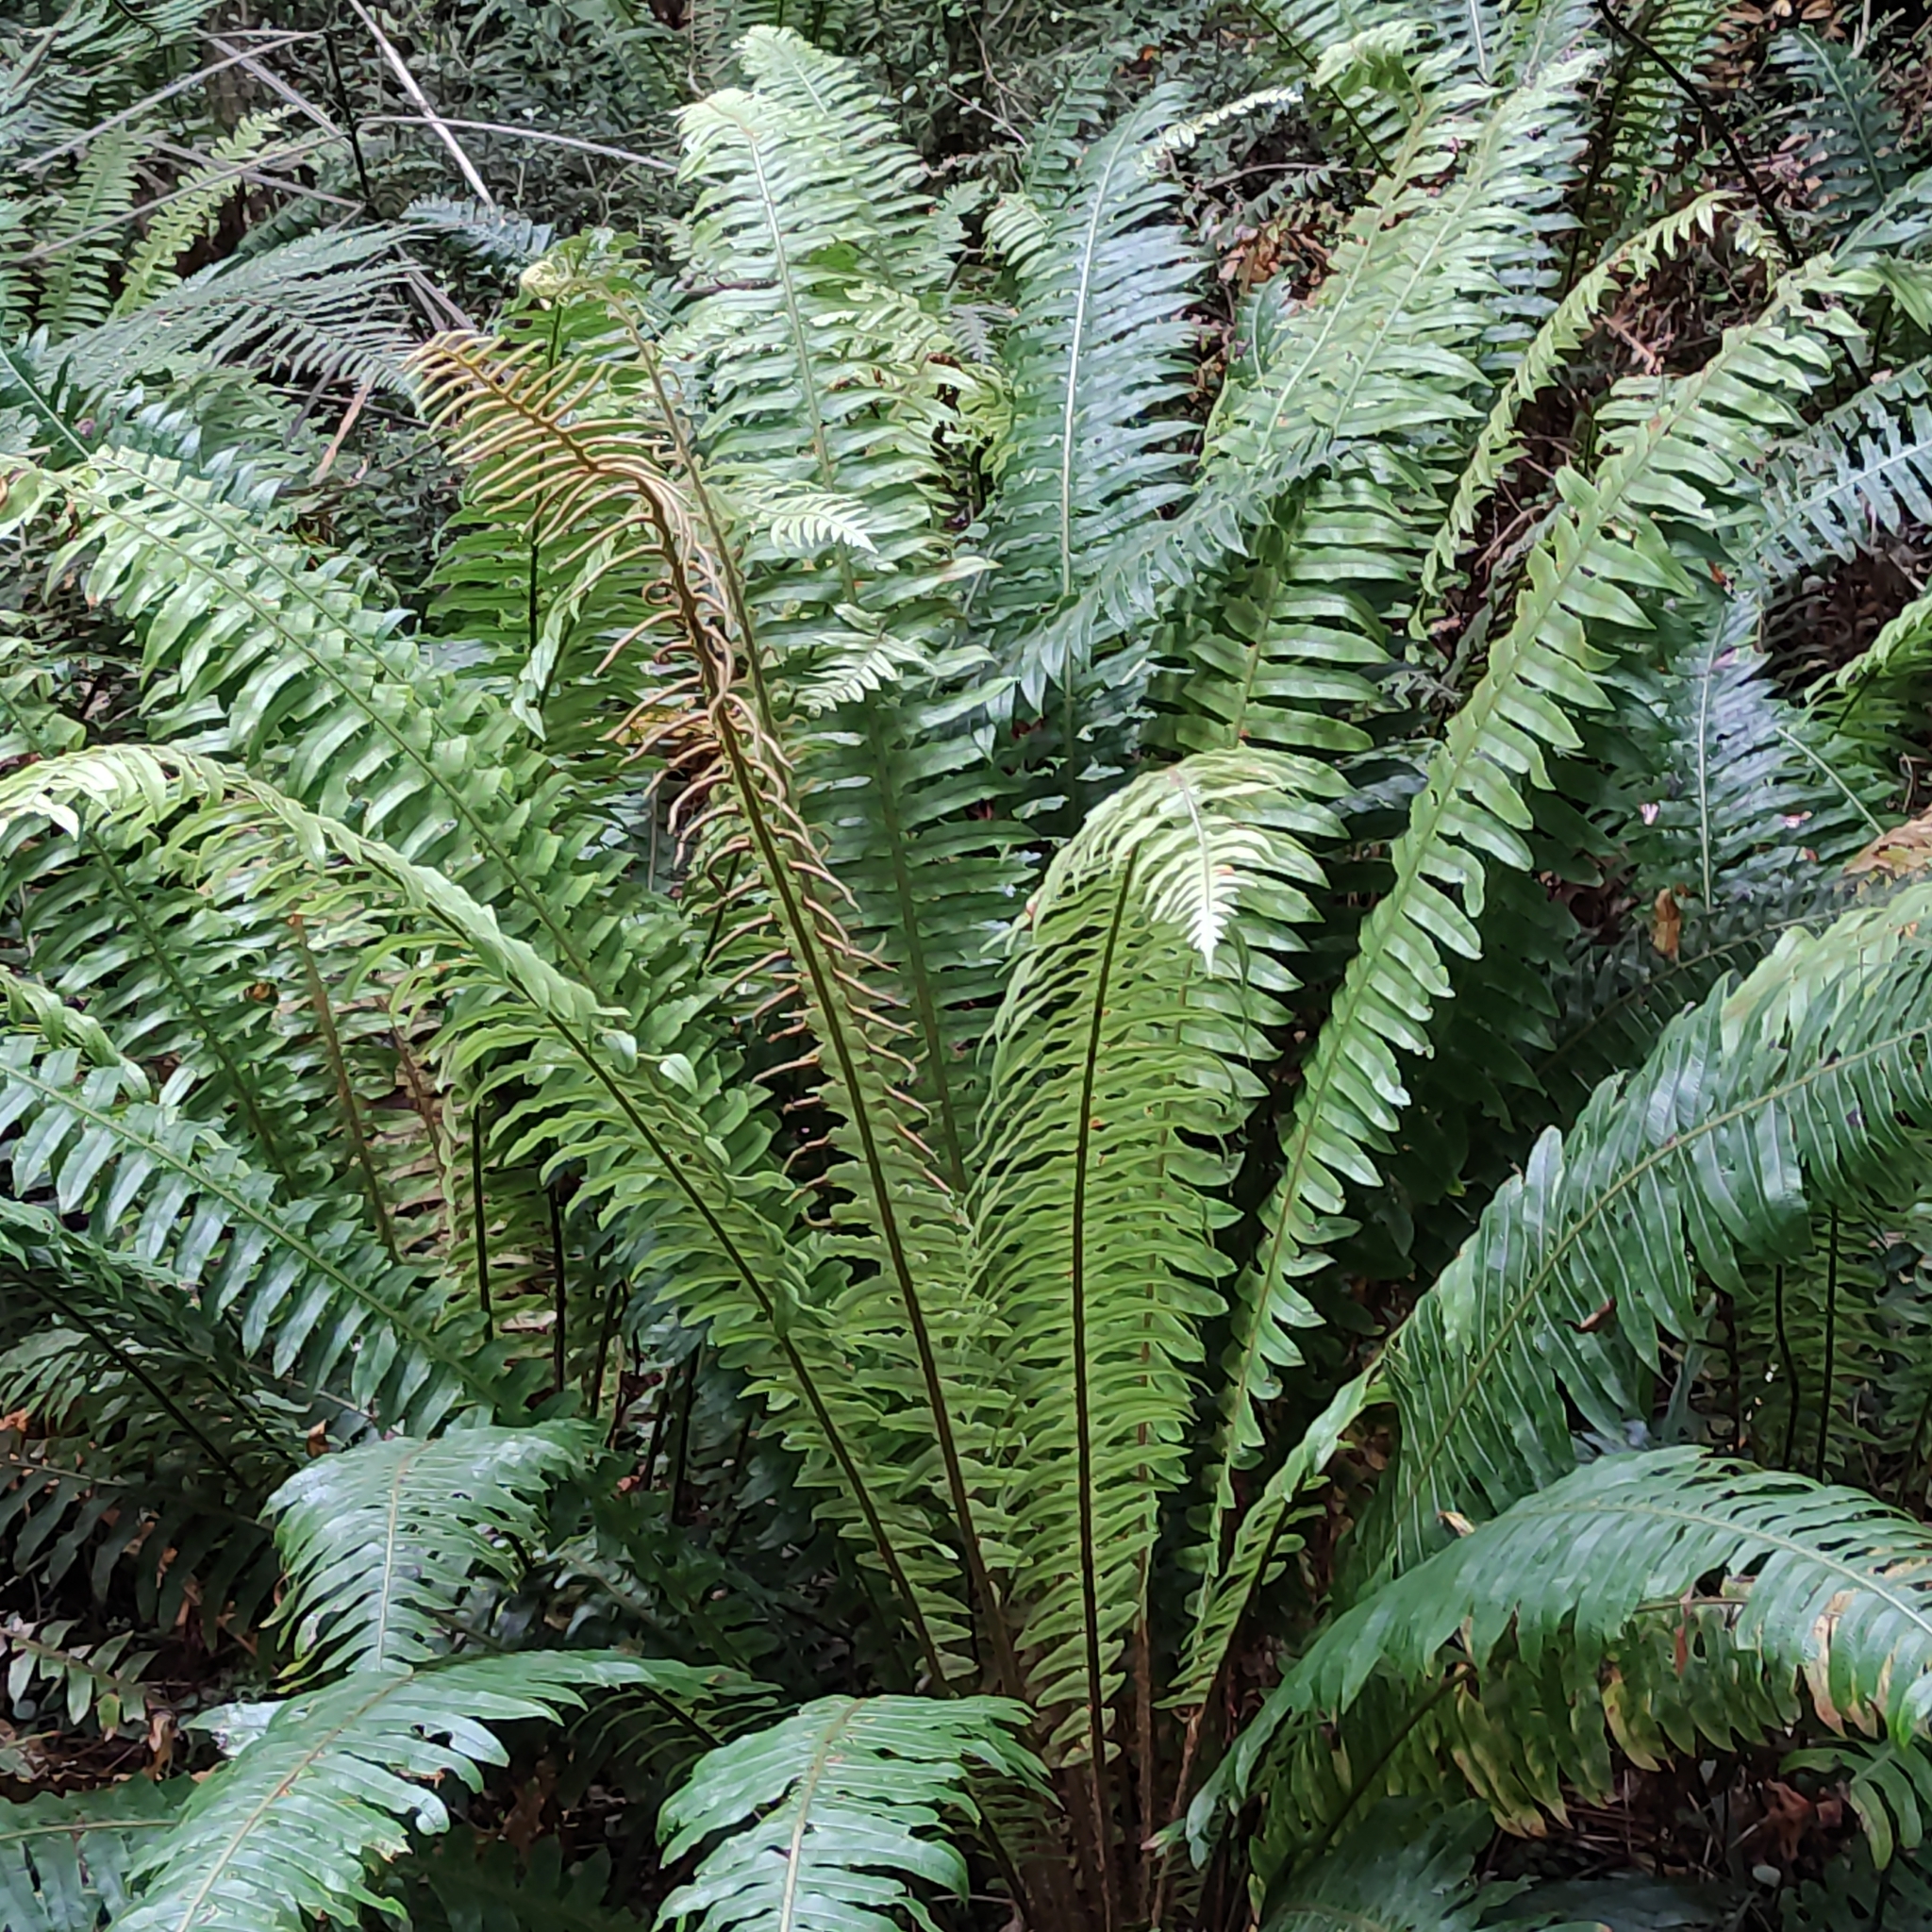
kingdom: Plantae
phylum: Tracheophyta
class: Polypodiopsida
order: Polypodiales
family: Blechnaceae
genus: Lomaria
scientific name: Lomaria discolor
